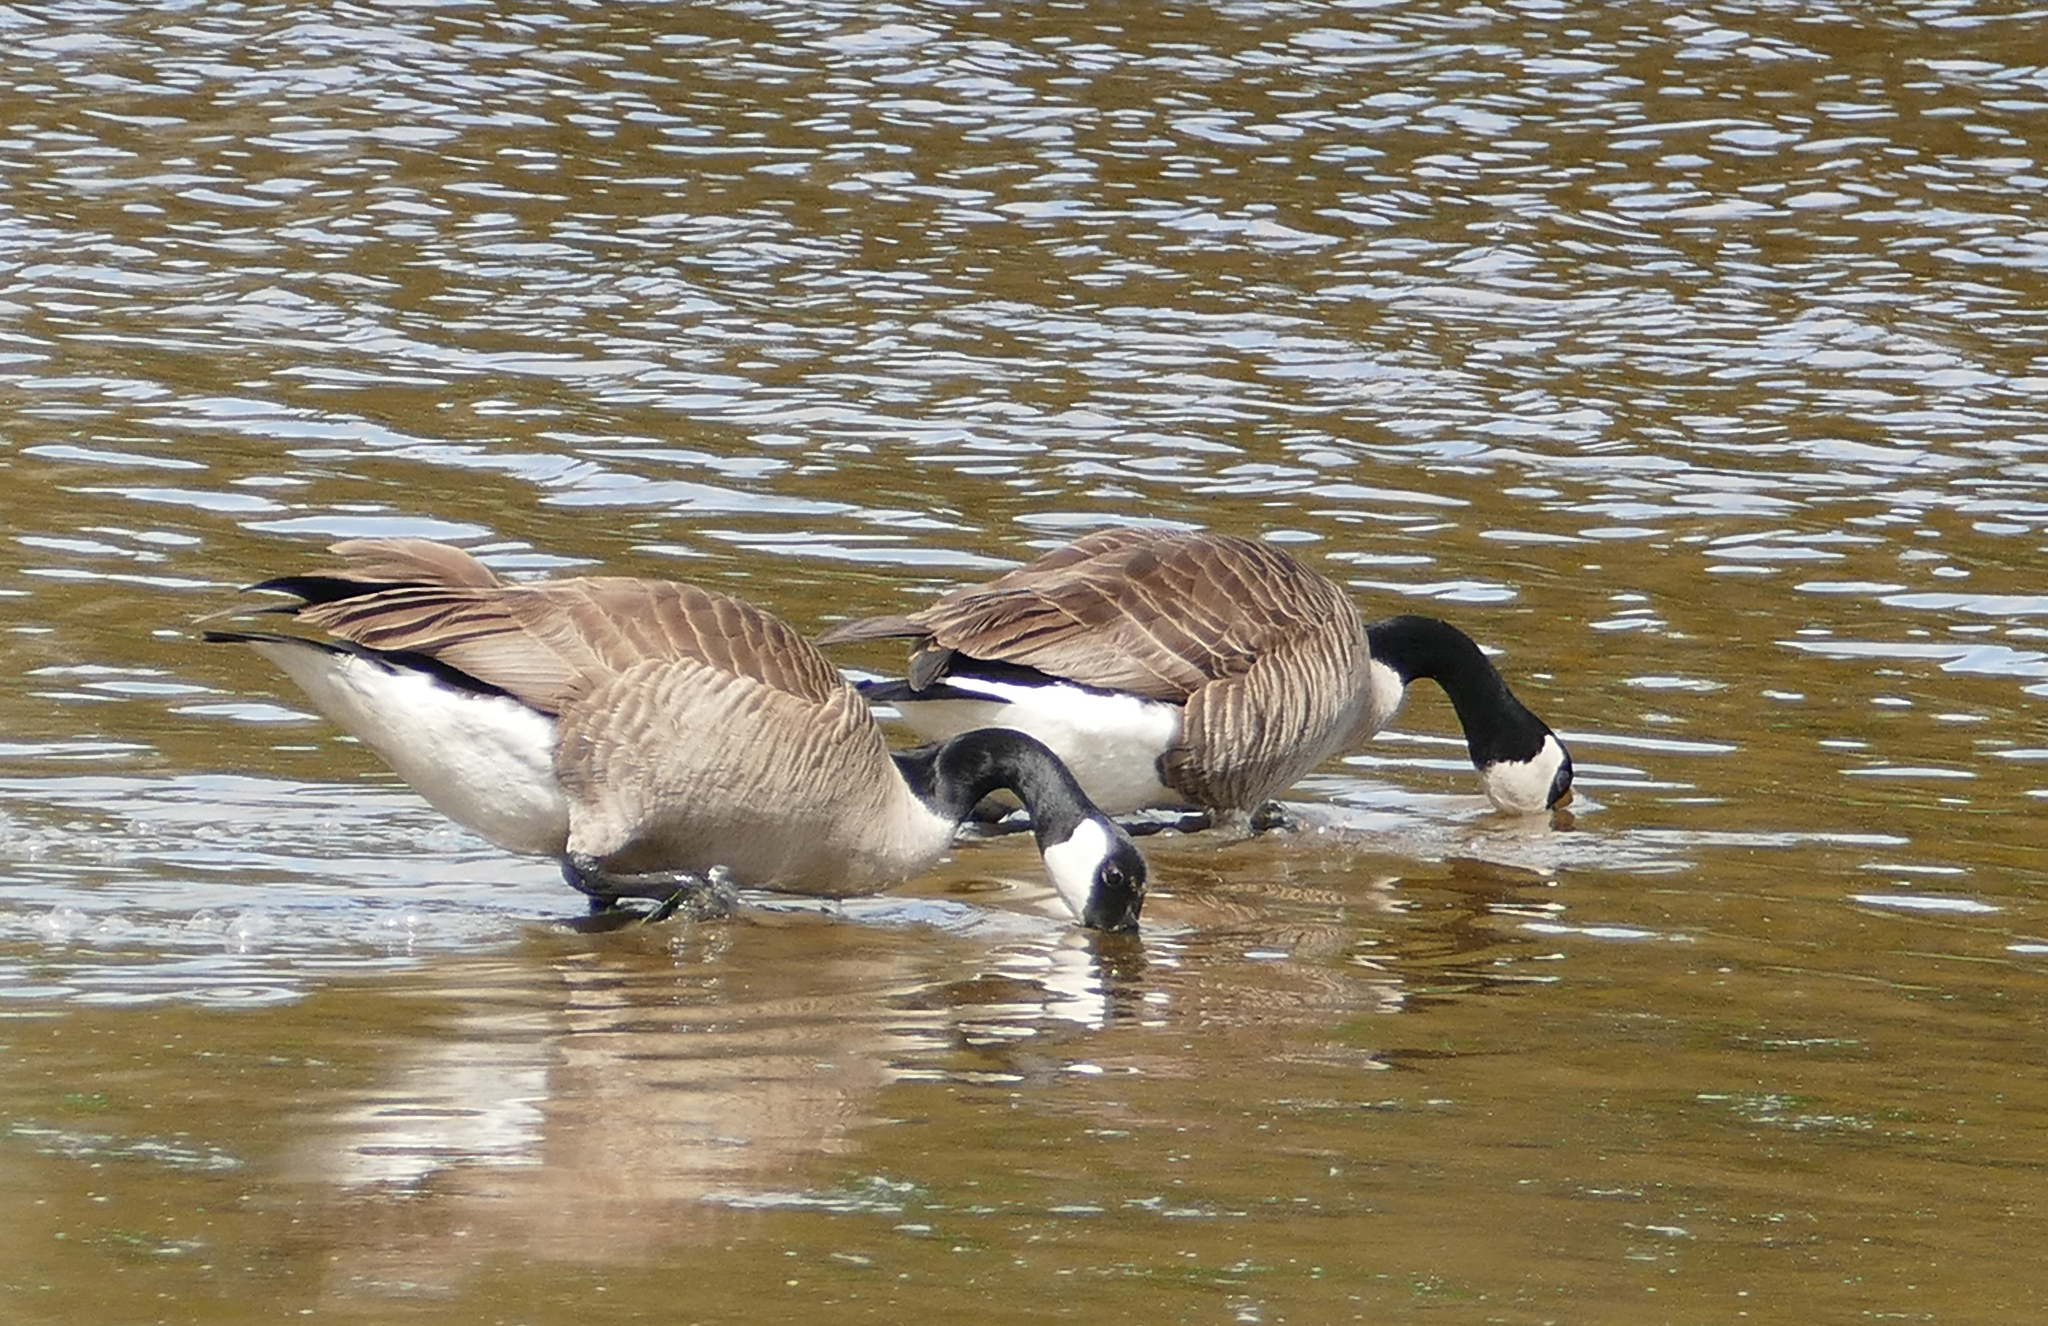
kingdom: Animalia
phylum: Chordata
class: Aves
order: Anseriformes
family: Anatidae
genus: Branta
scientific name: Branta canadensis
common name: Canada goose
